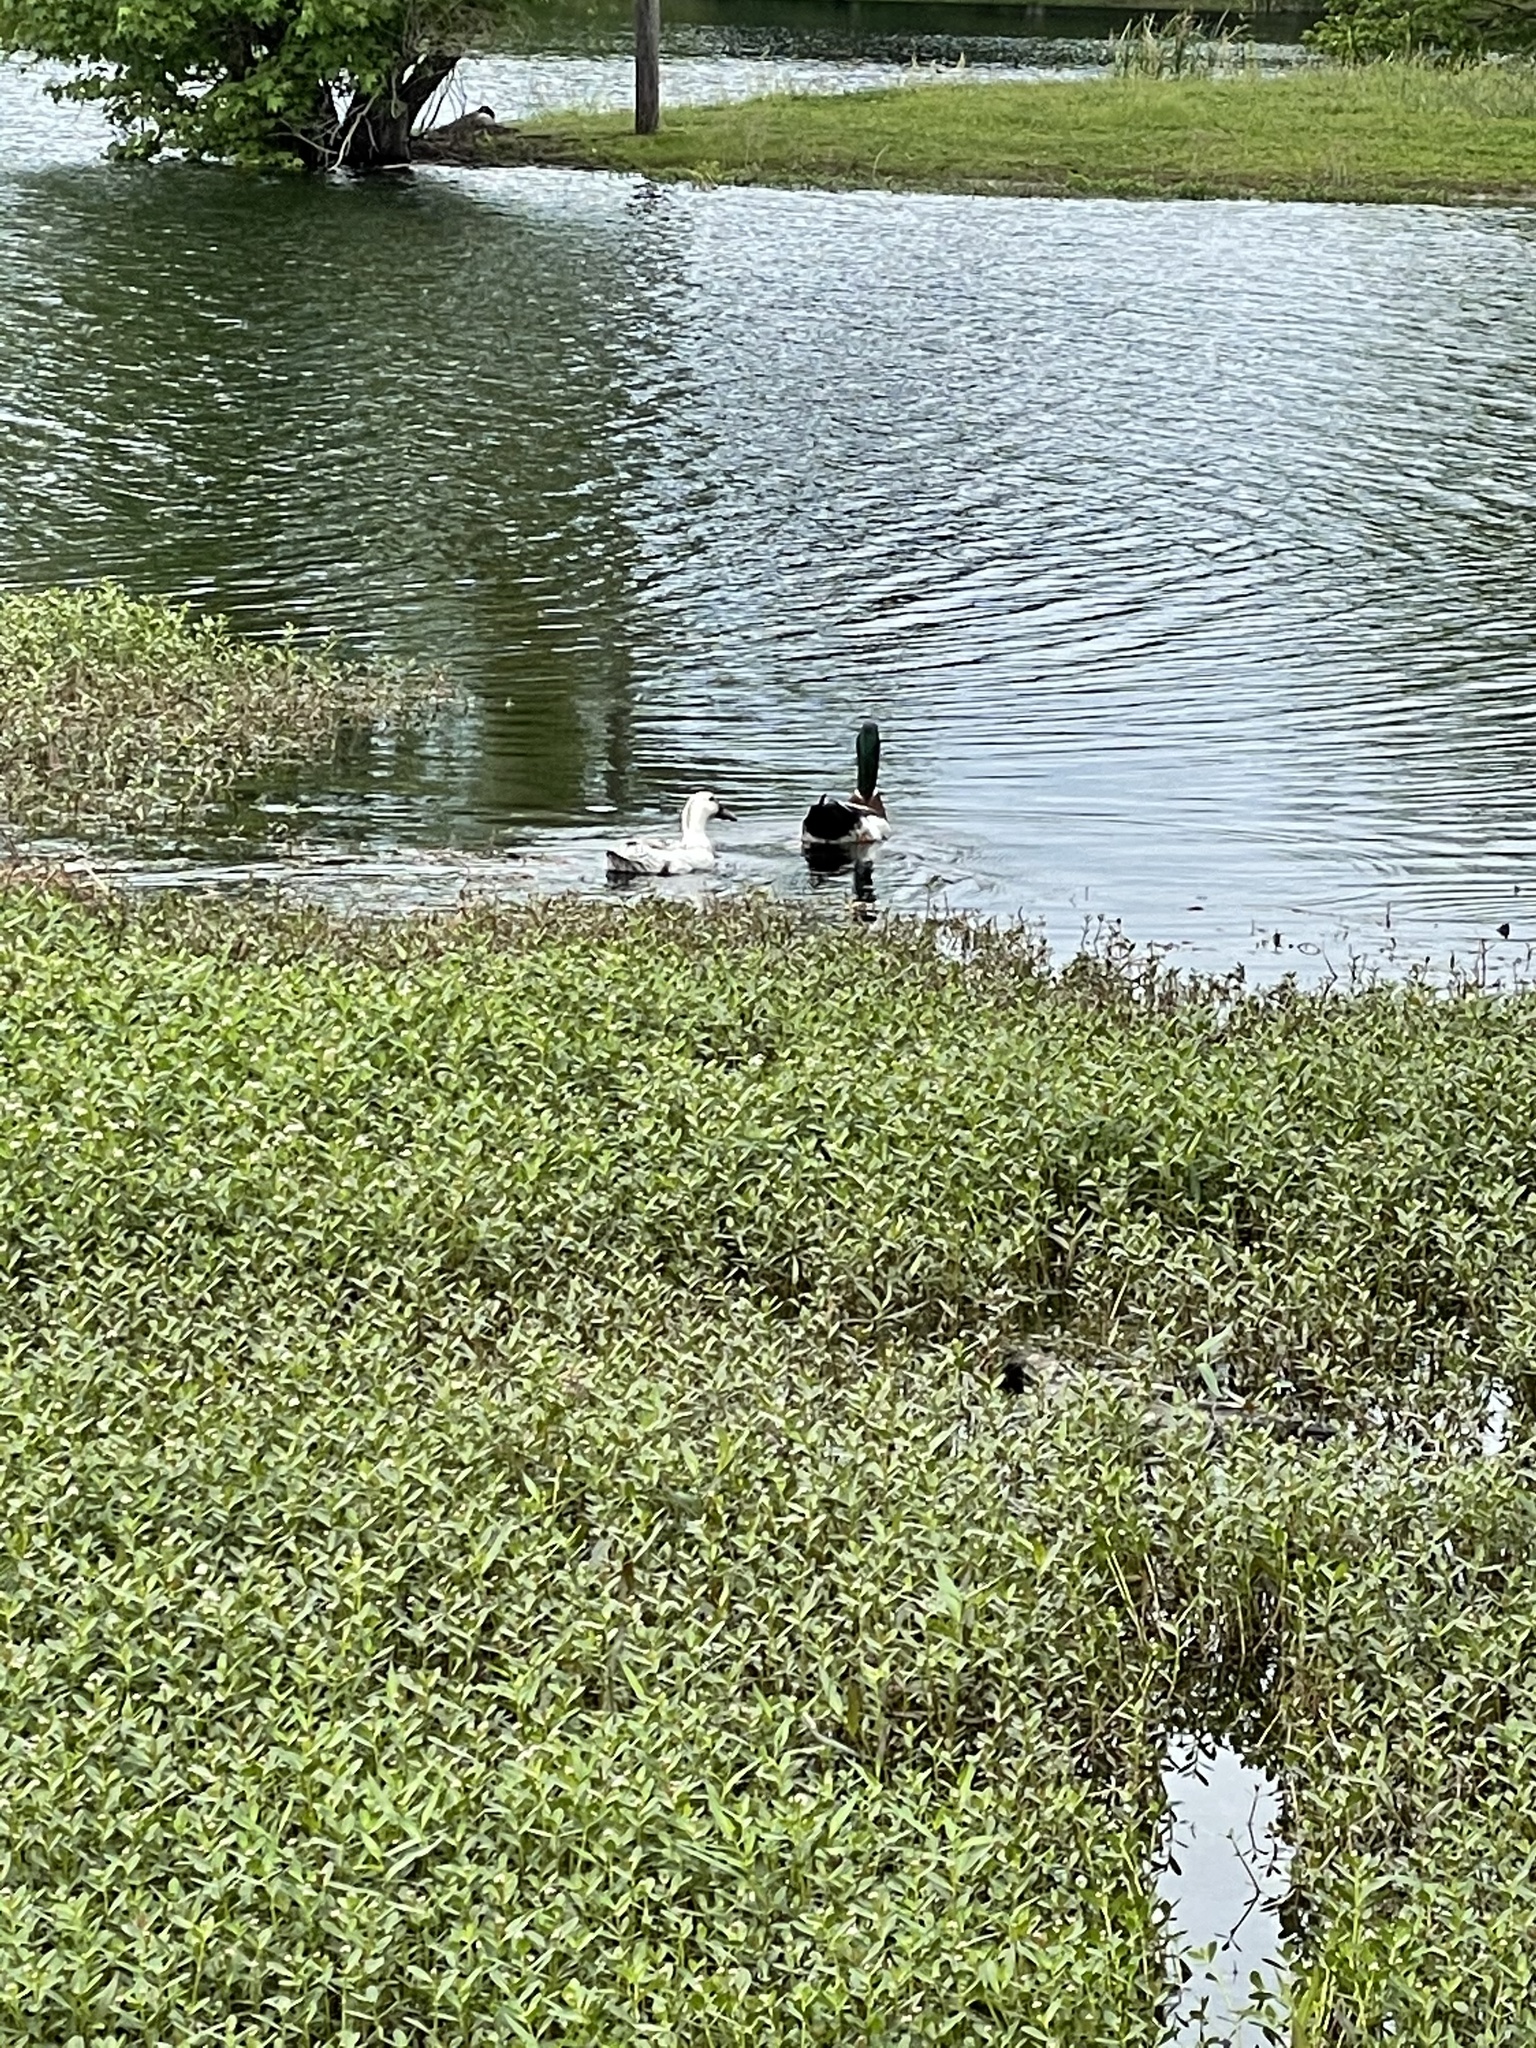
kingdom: Animalia
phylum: Chordata
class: Aves
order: Anseriformes
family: Anatidae
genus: Anas
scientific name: Anas platyrhynchos
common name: Mallard
